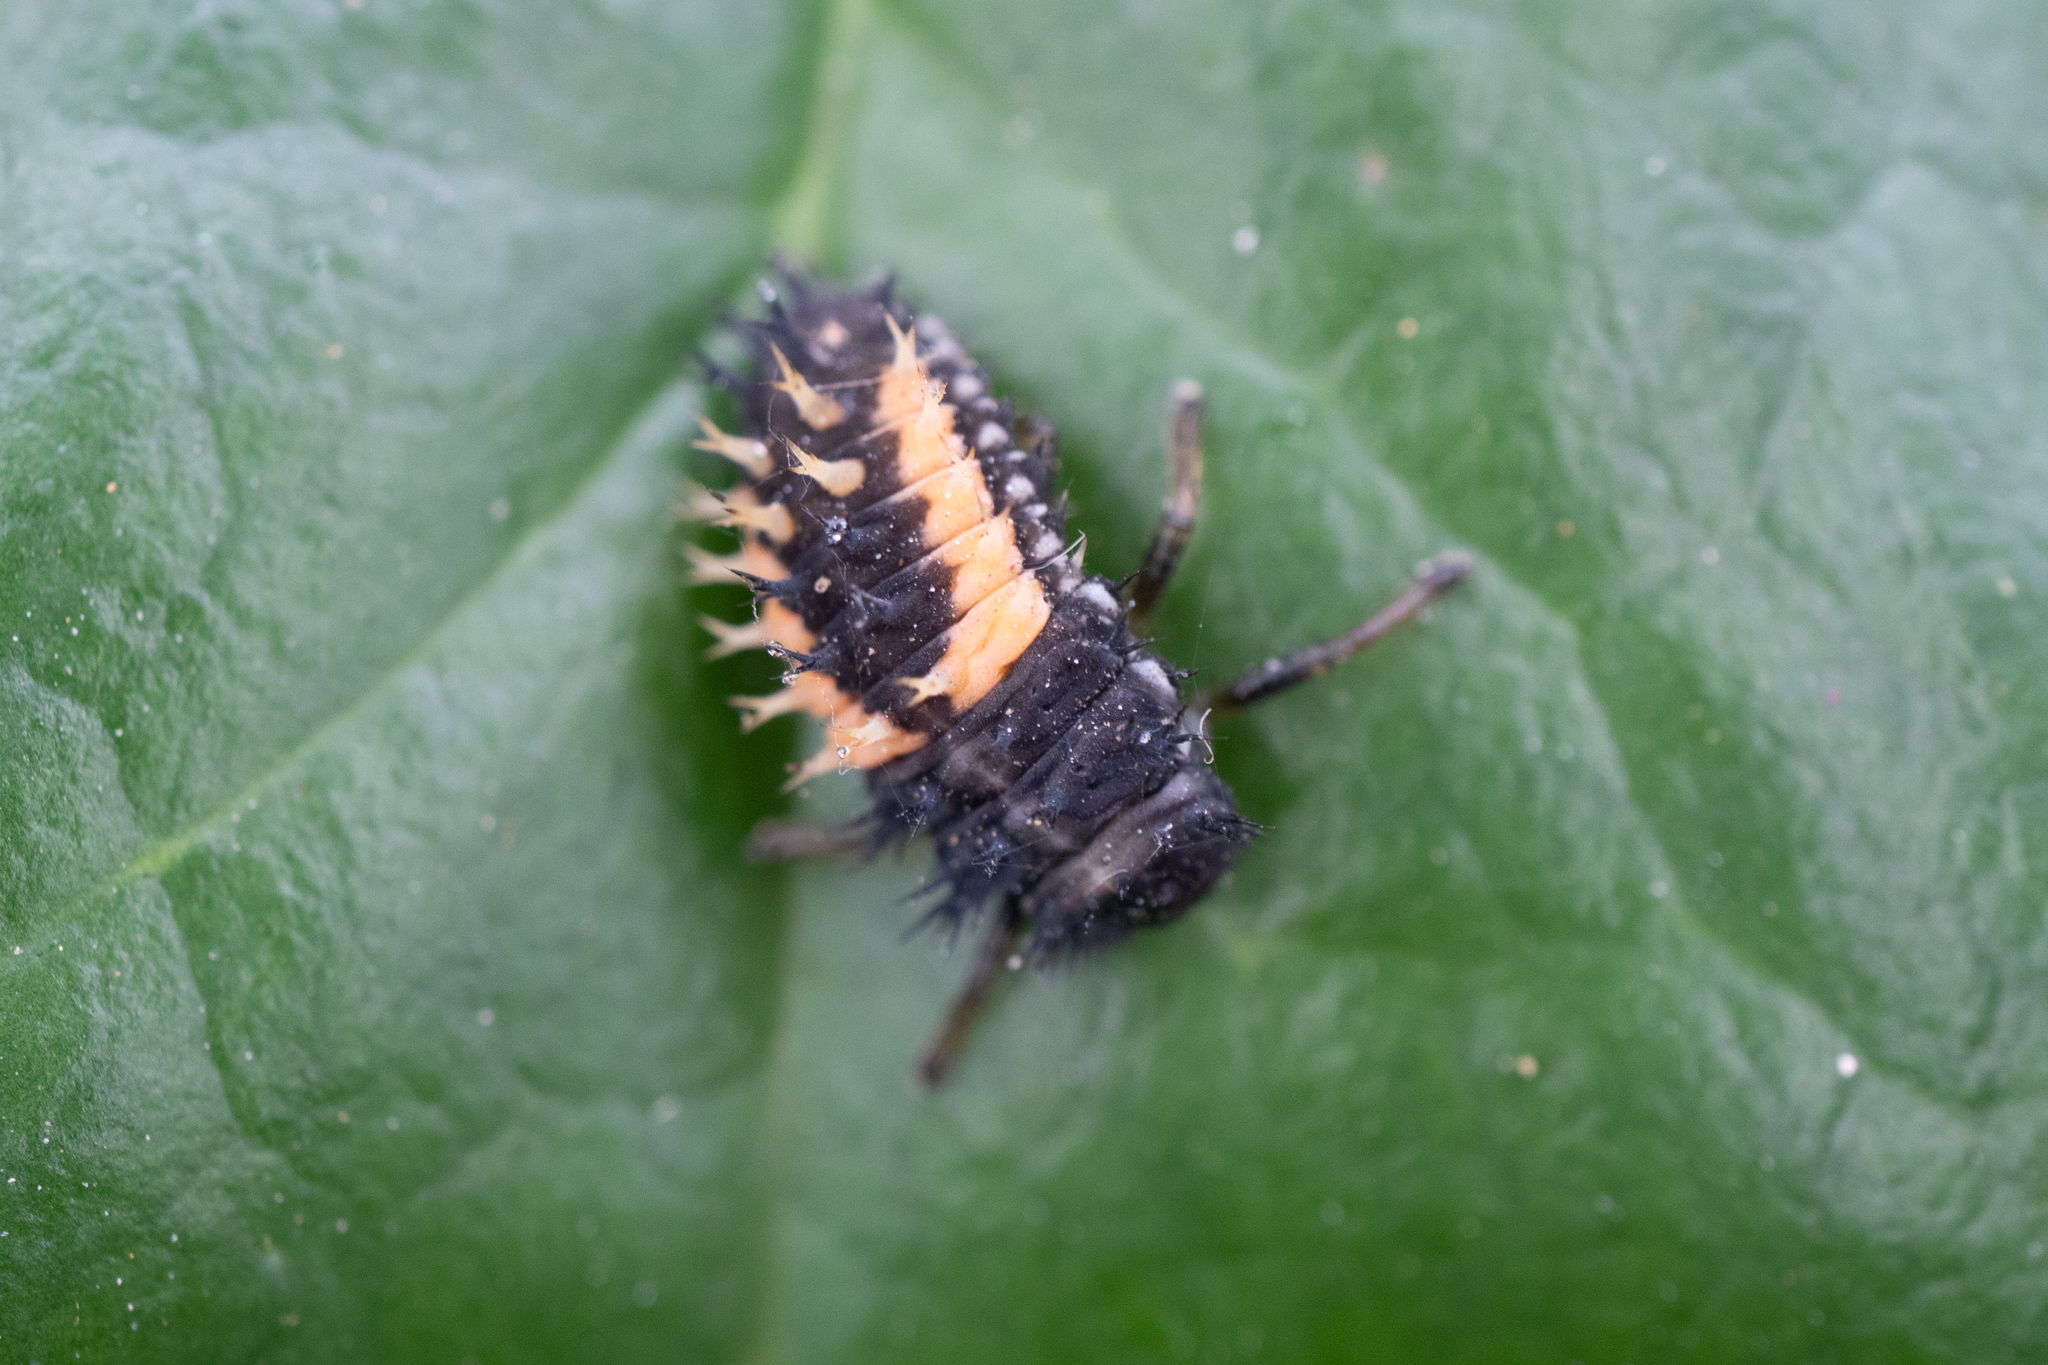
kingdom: Animalia
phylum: Arthropoda
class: Insecta
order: Coleoptera
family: Coccinellidae
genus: Harmonia
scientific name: Harmonia axyridis
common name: Harlequin ladybird
